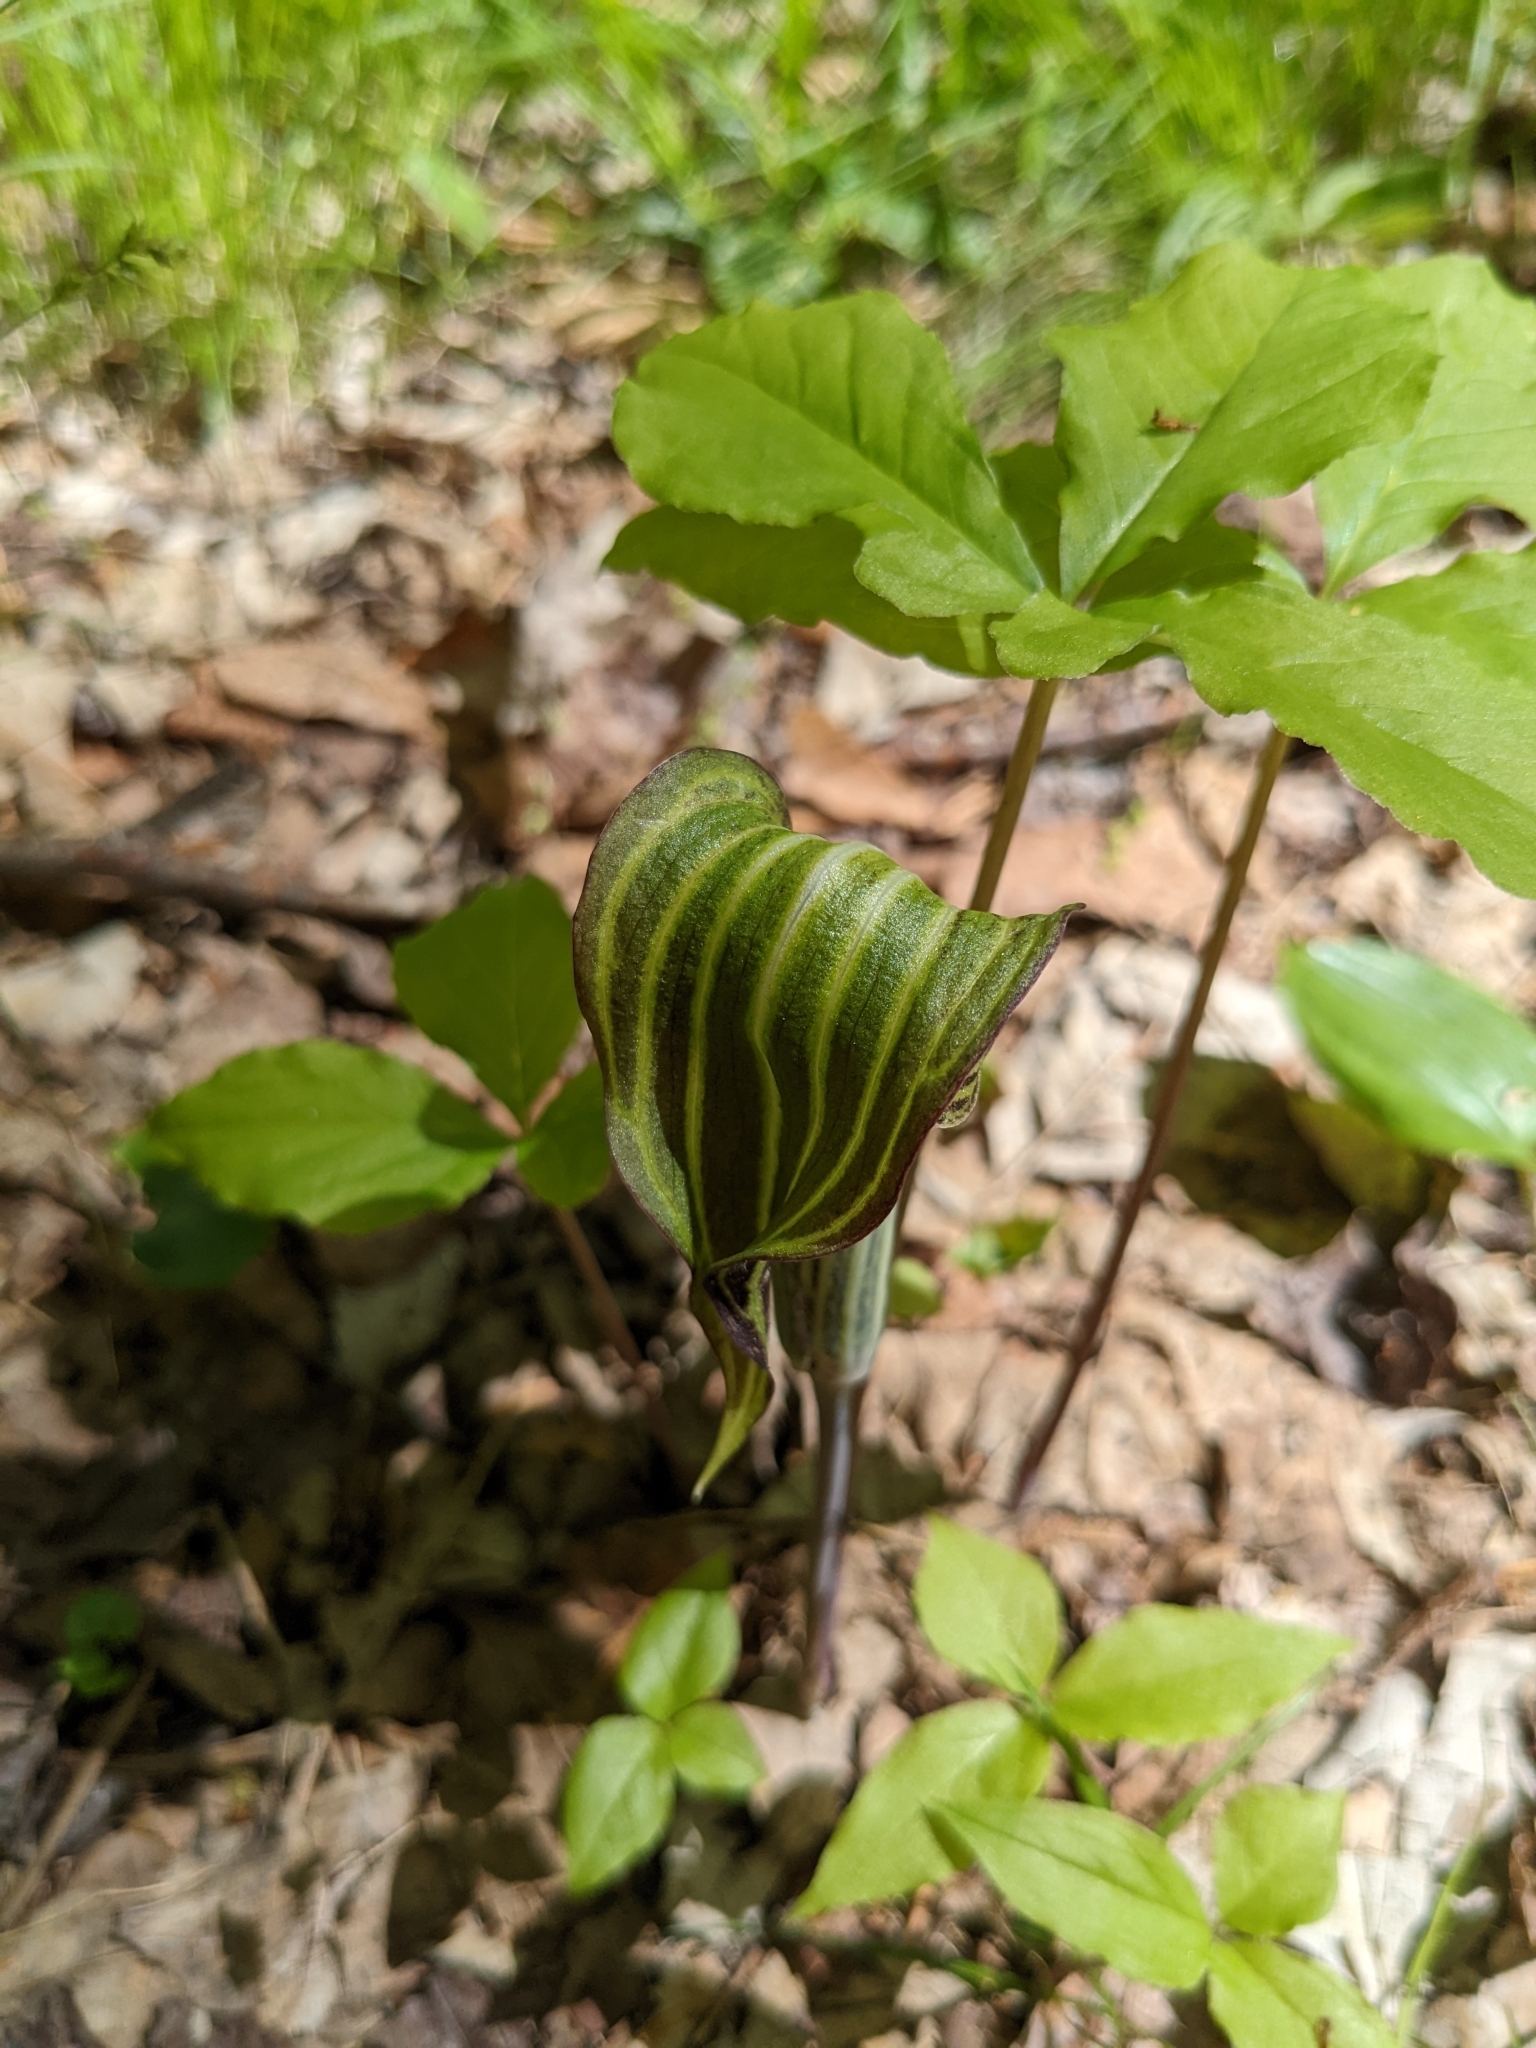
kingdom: Plantae
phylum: Tracheophyta
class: Liliopsida
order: Alismatales
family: Araceae
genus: Arisaema
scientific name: Arisaema triphyllum
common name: Jack-in-the-pulpit
